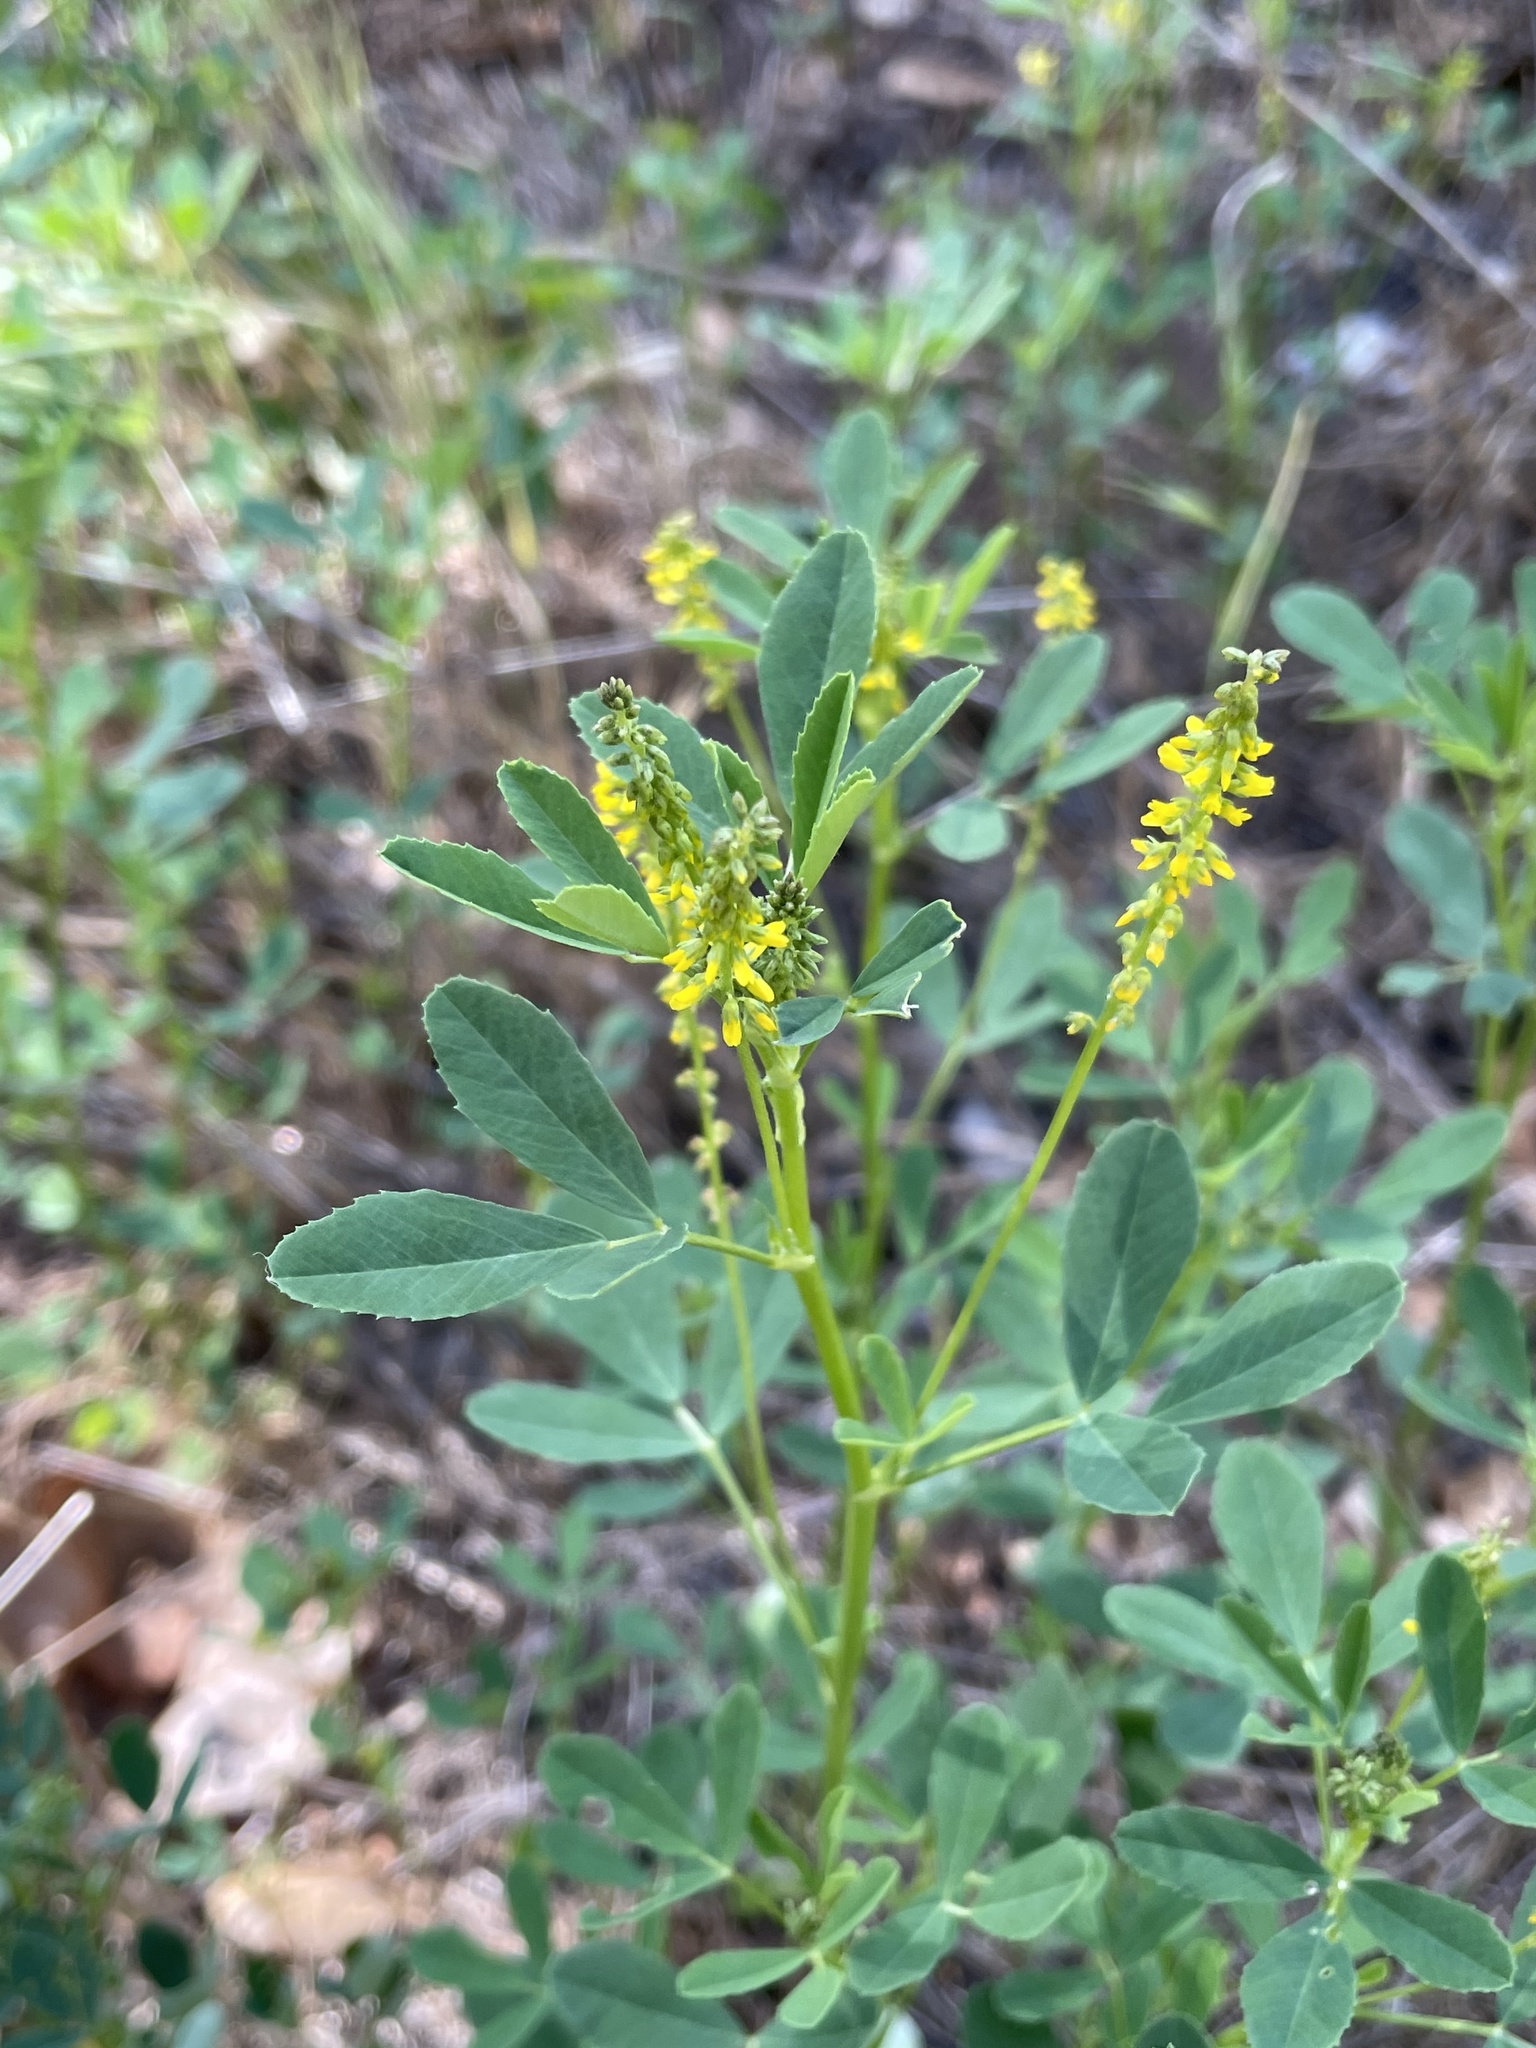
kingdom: Plantae
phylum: Tracheophyta
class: Magnoliopsida
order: Fabales
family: Fabaceae
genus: Melilotus
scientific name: Melilotus indicus
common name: Small melilot
